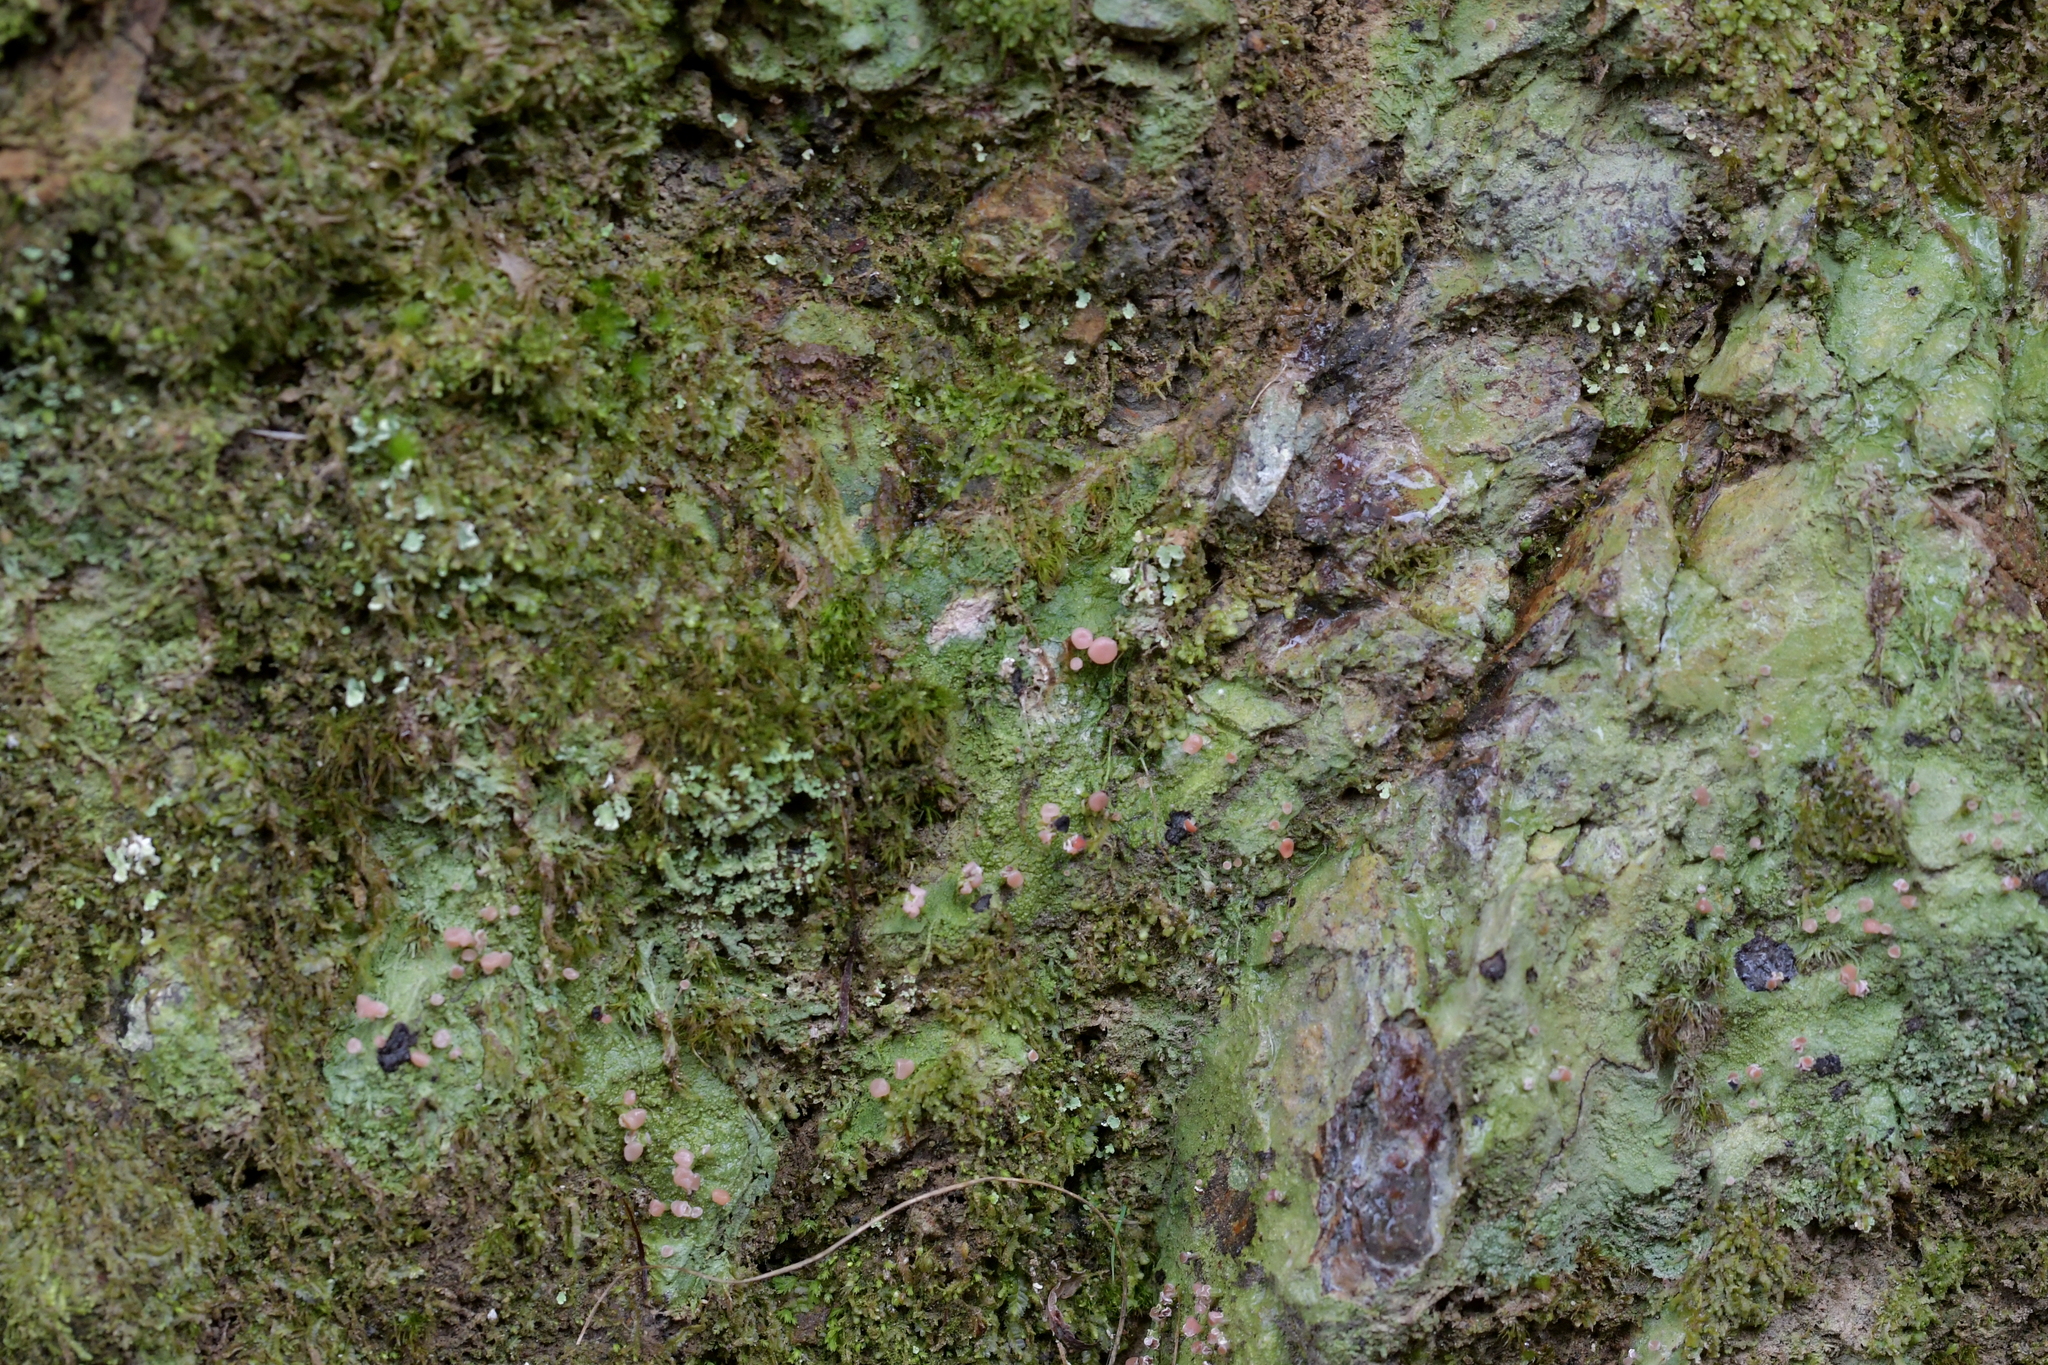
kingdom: Fungi
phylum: Ascomycota
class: Lecanoromycetes
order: Baeomycetales
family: Baeomycetaceae
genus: Baeomyces
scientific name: Baeomyces heteromorphus
